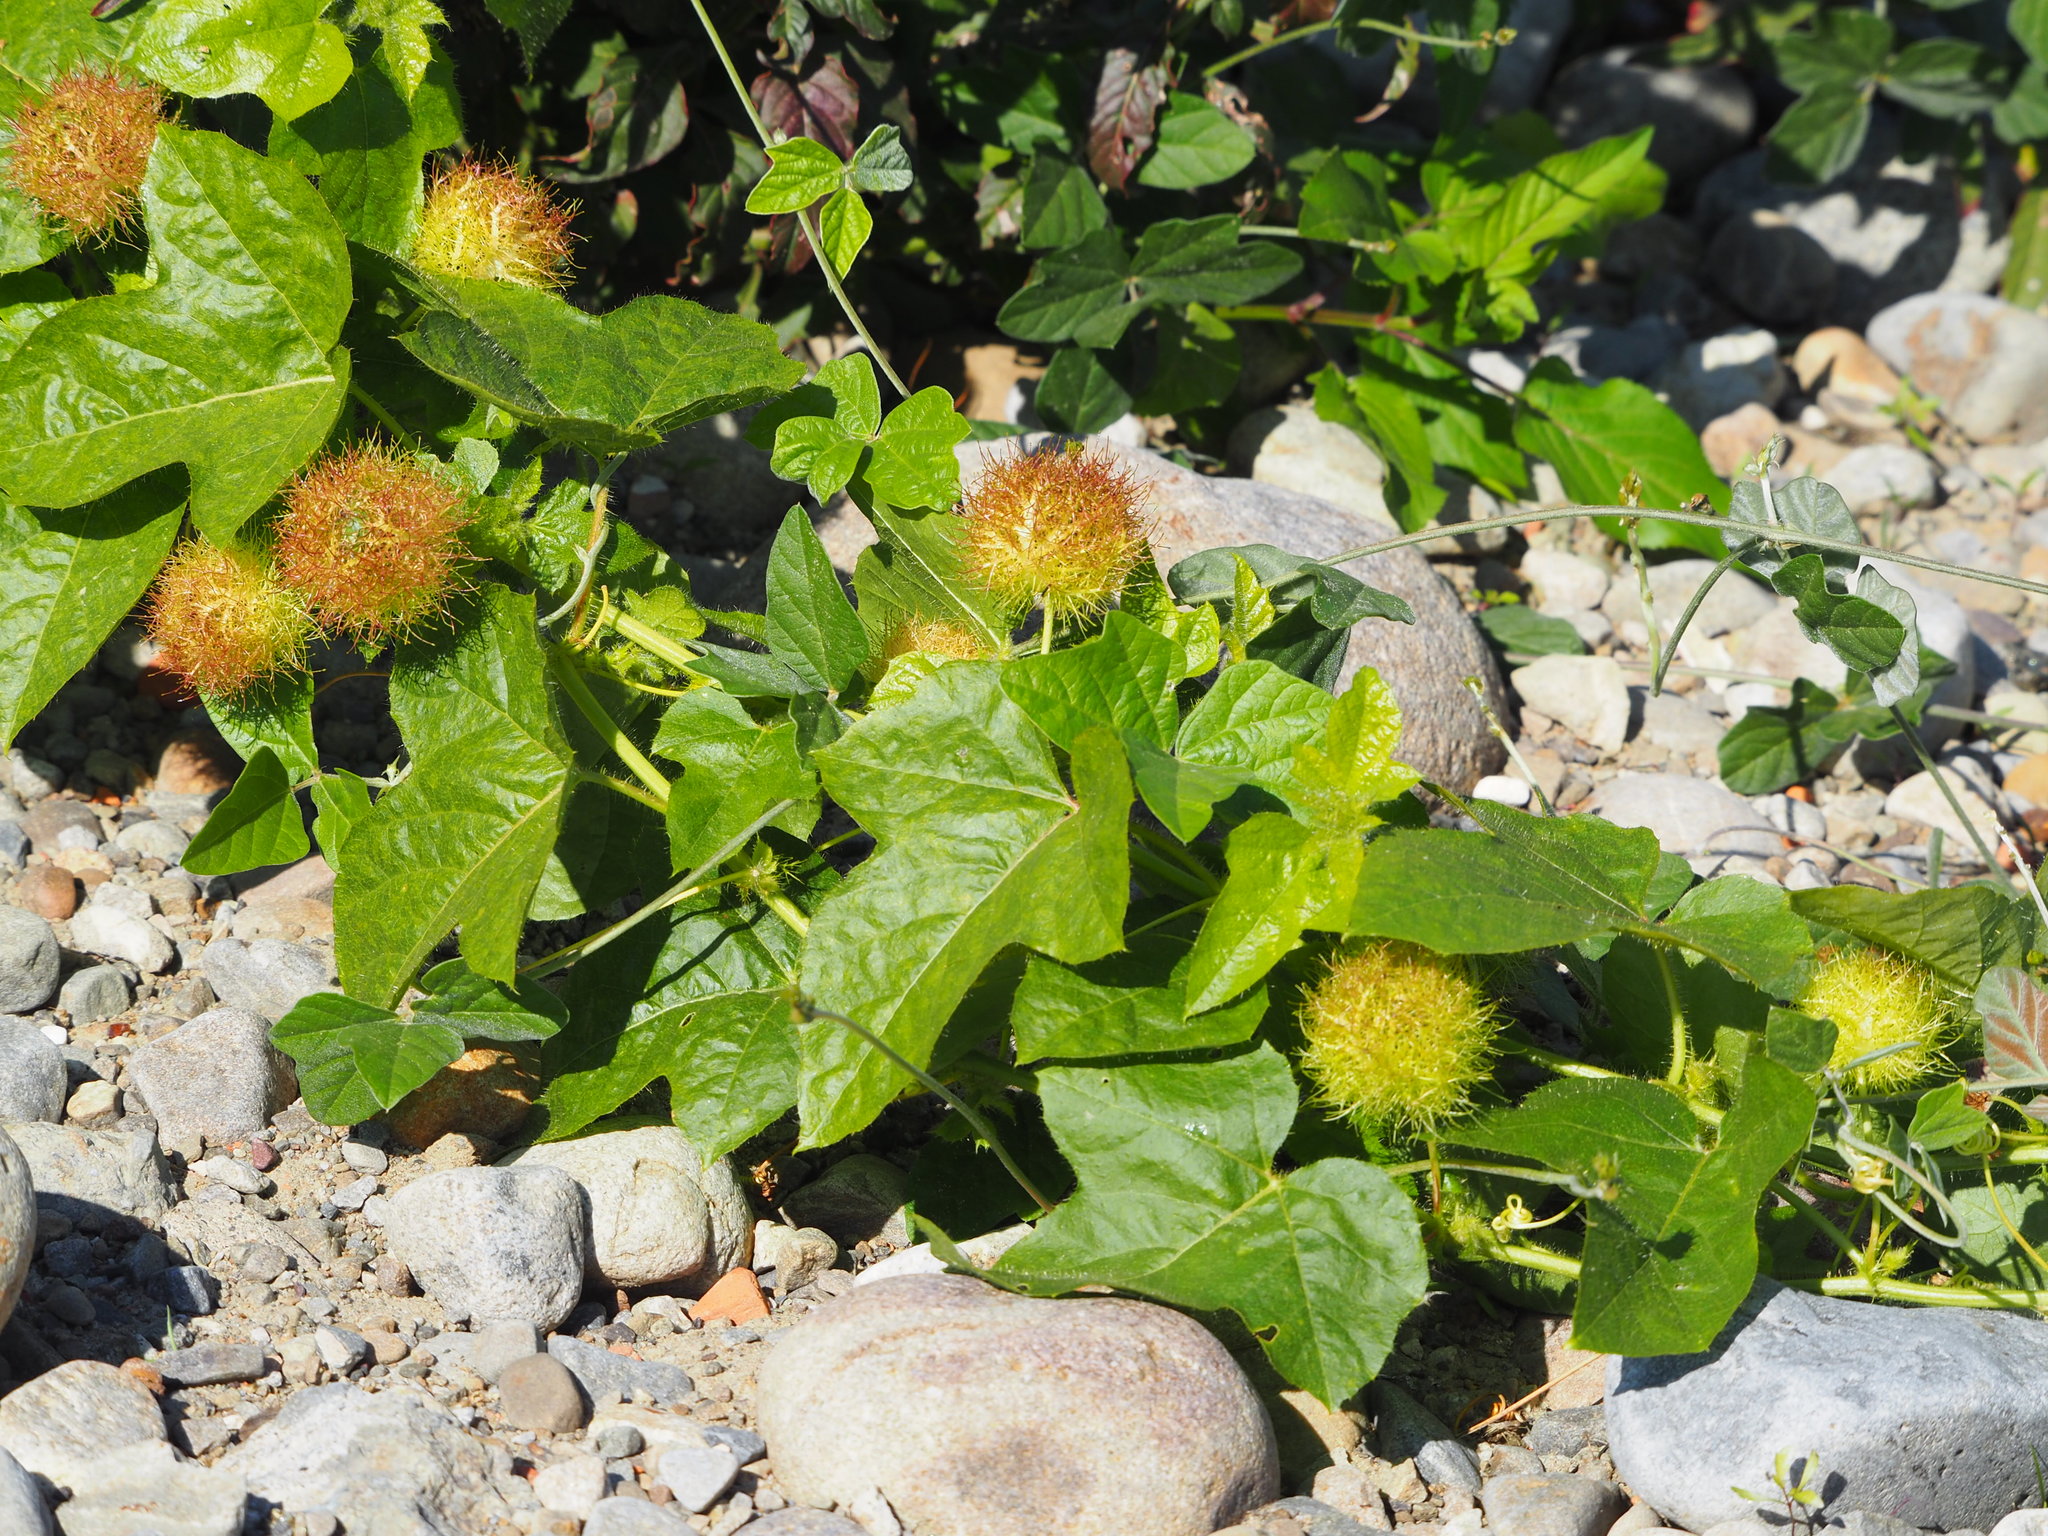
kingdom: Plantae
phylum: Tracheophyta
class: Magnoliopsida
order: Malpighiales
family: Passifloraceae
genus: Passiflora
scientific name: Passiflora vesicaria
